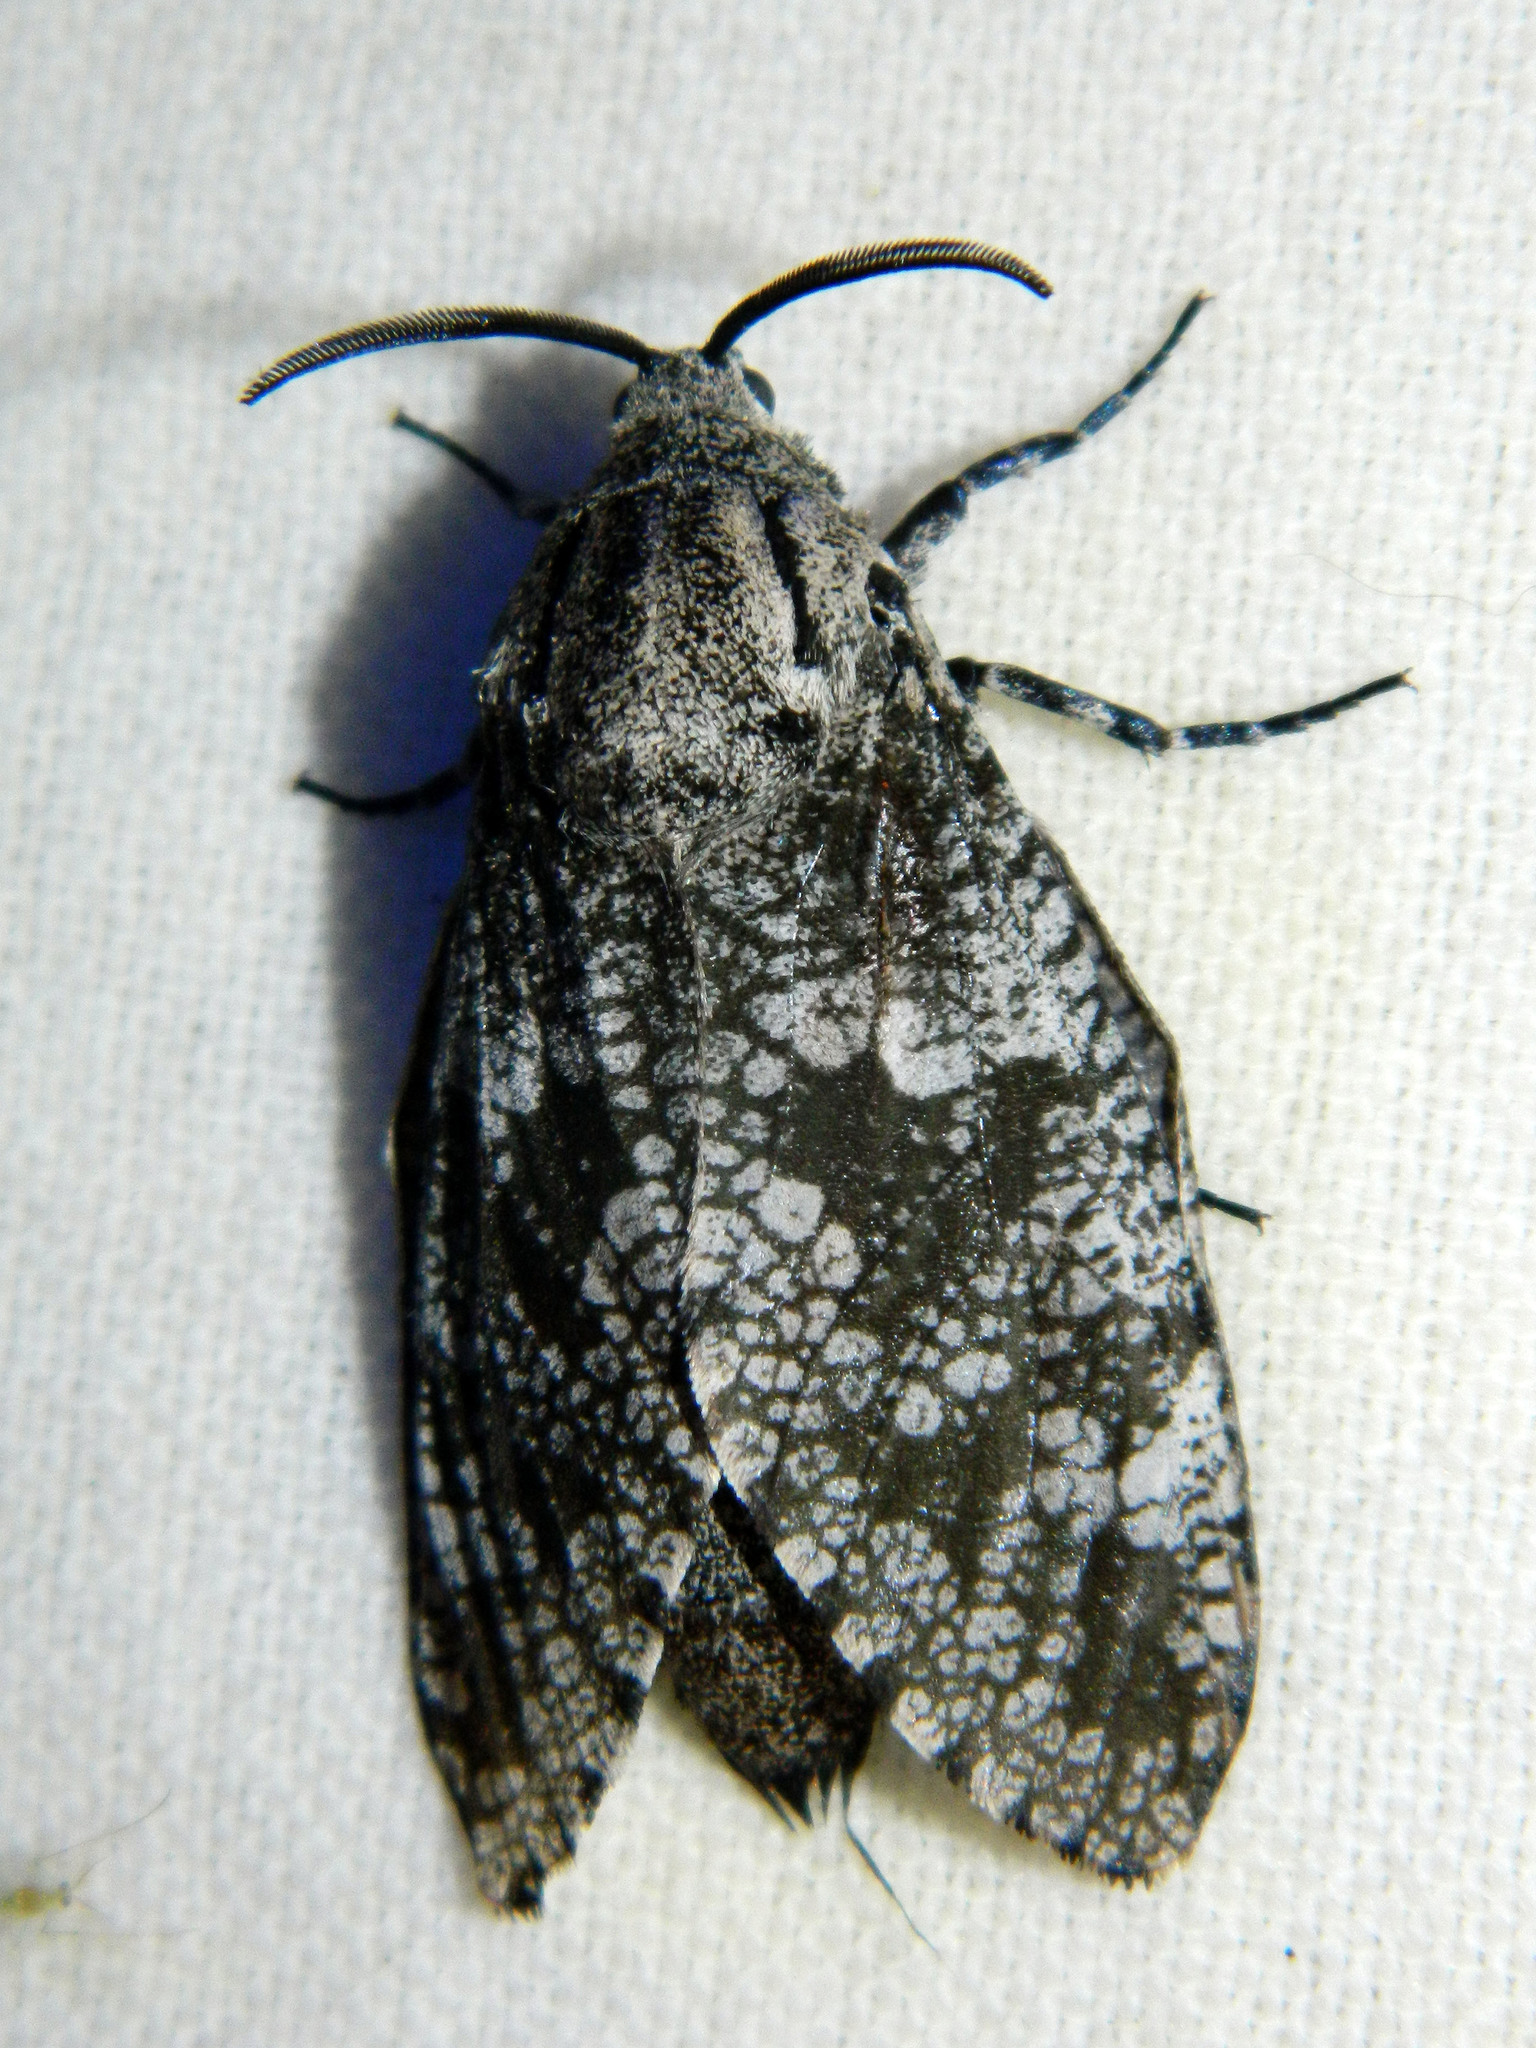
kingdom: Animalia
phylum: Arthropoda
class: Insecta
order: Lepidoptera
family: Cossidae
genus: Prionoxystus
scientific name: Prionoxystus robiniae
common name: Carpenterworm
